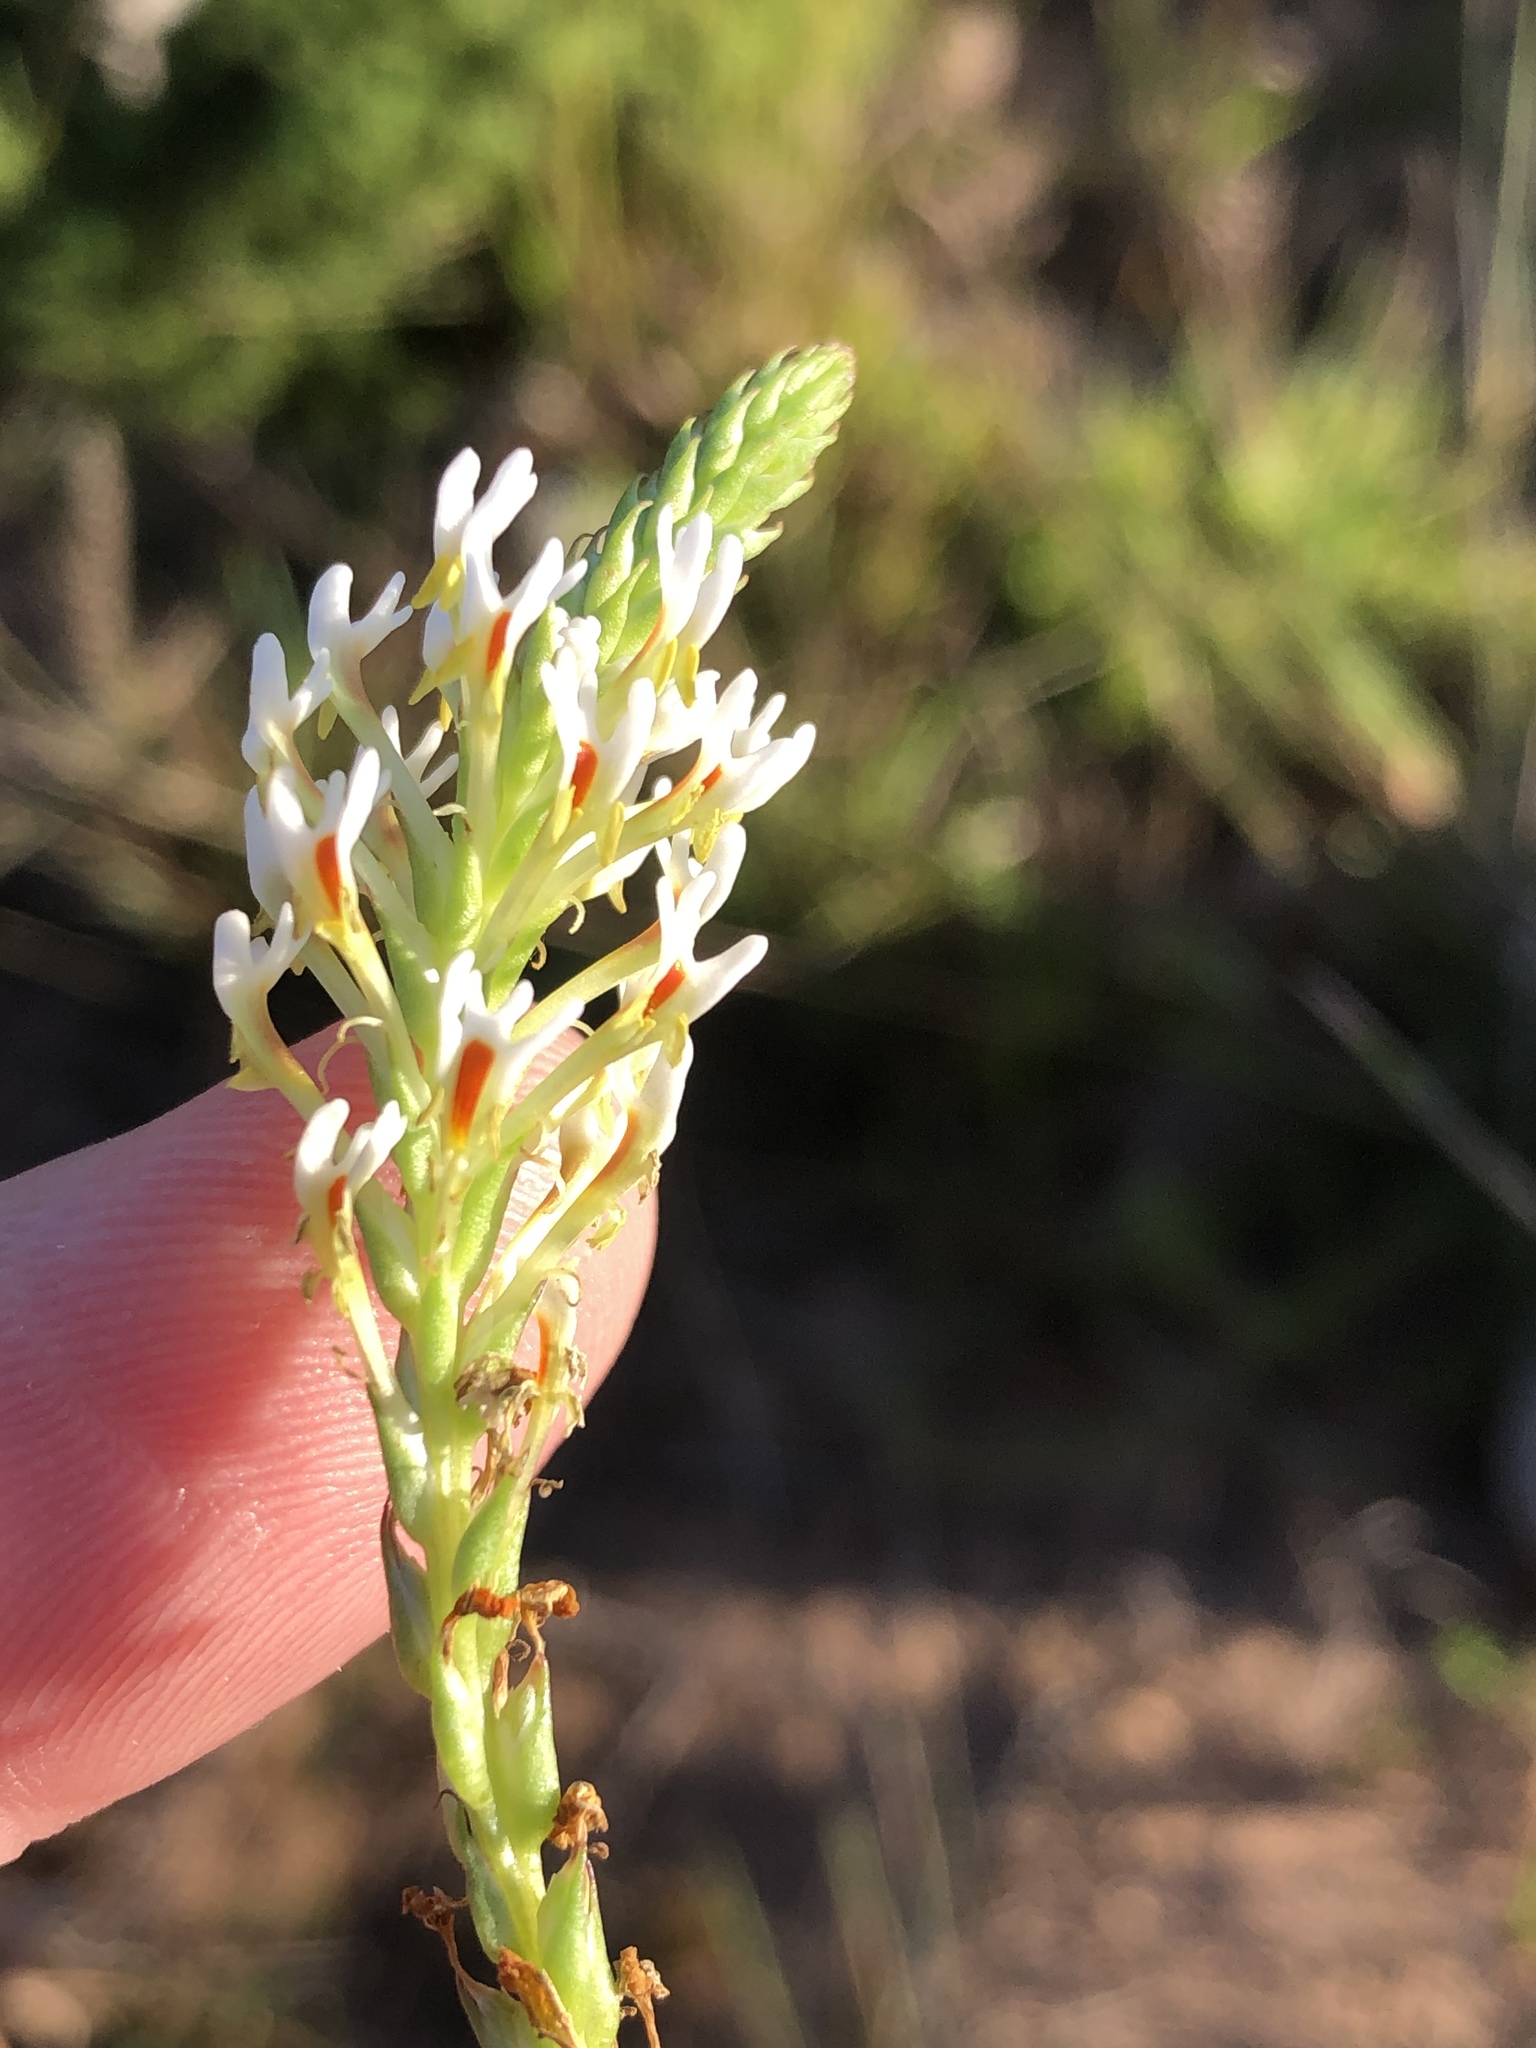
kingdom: Plantae
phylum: Tracheophyta
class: Magnoliopsida
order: Lamiales
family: Scrophulariaceae
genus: Hebenstretia
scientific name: Hebenstretia integrifolia
